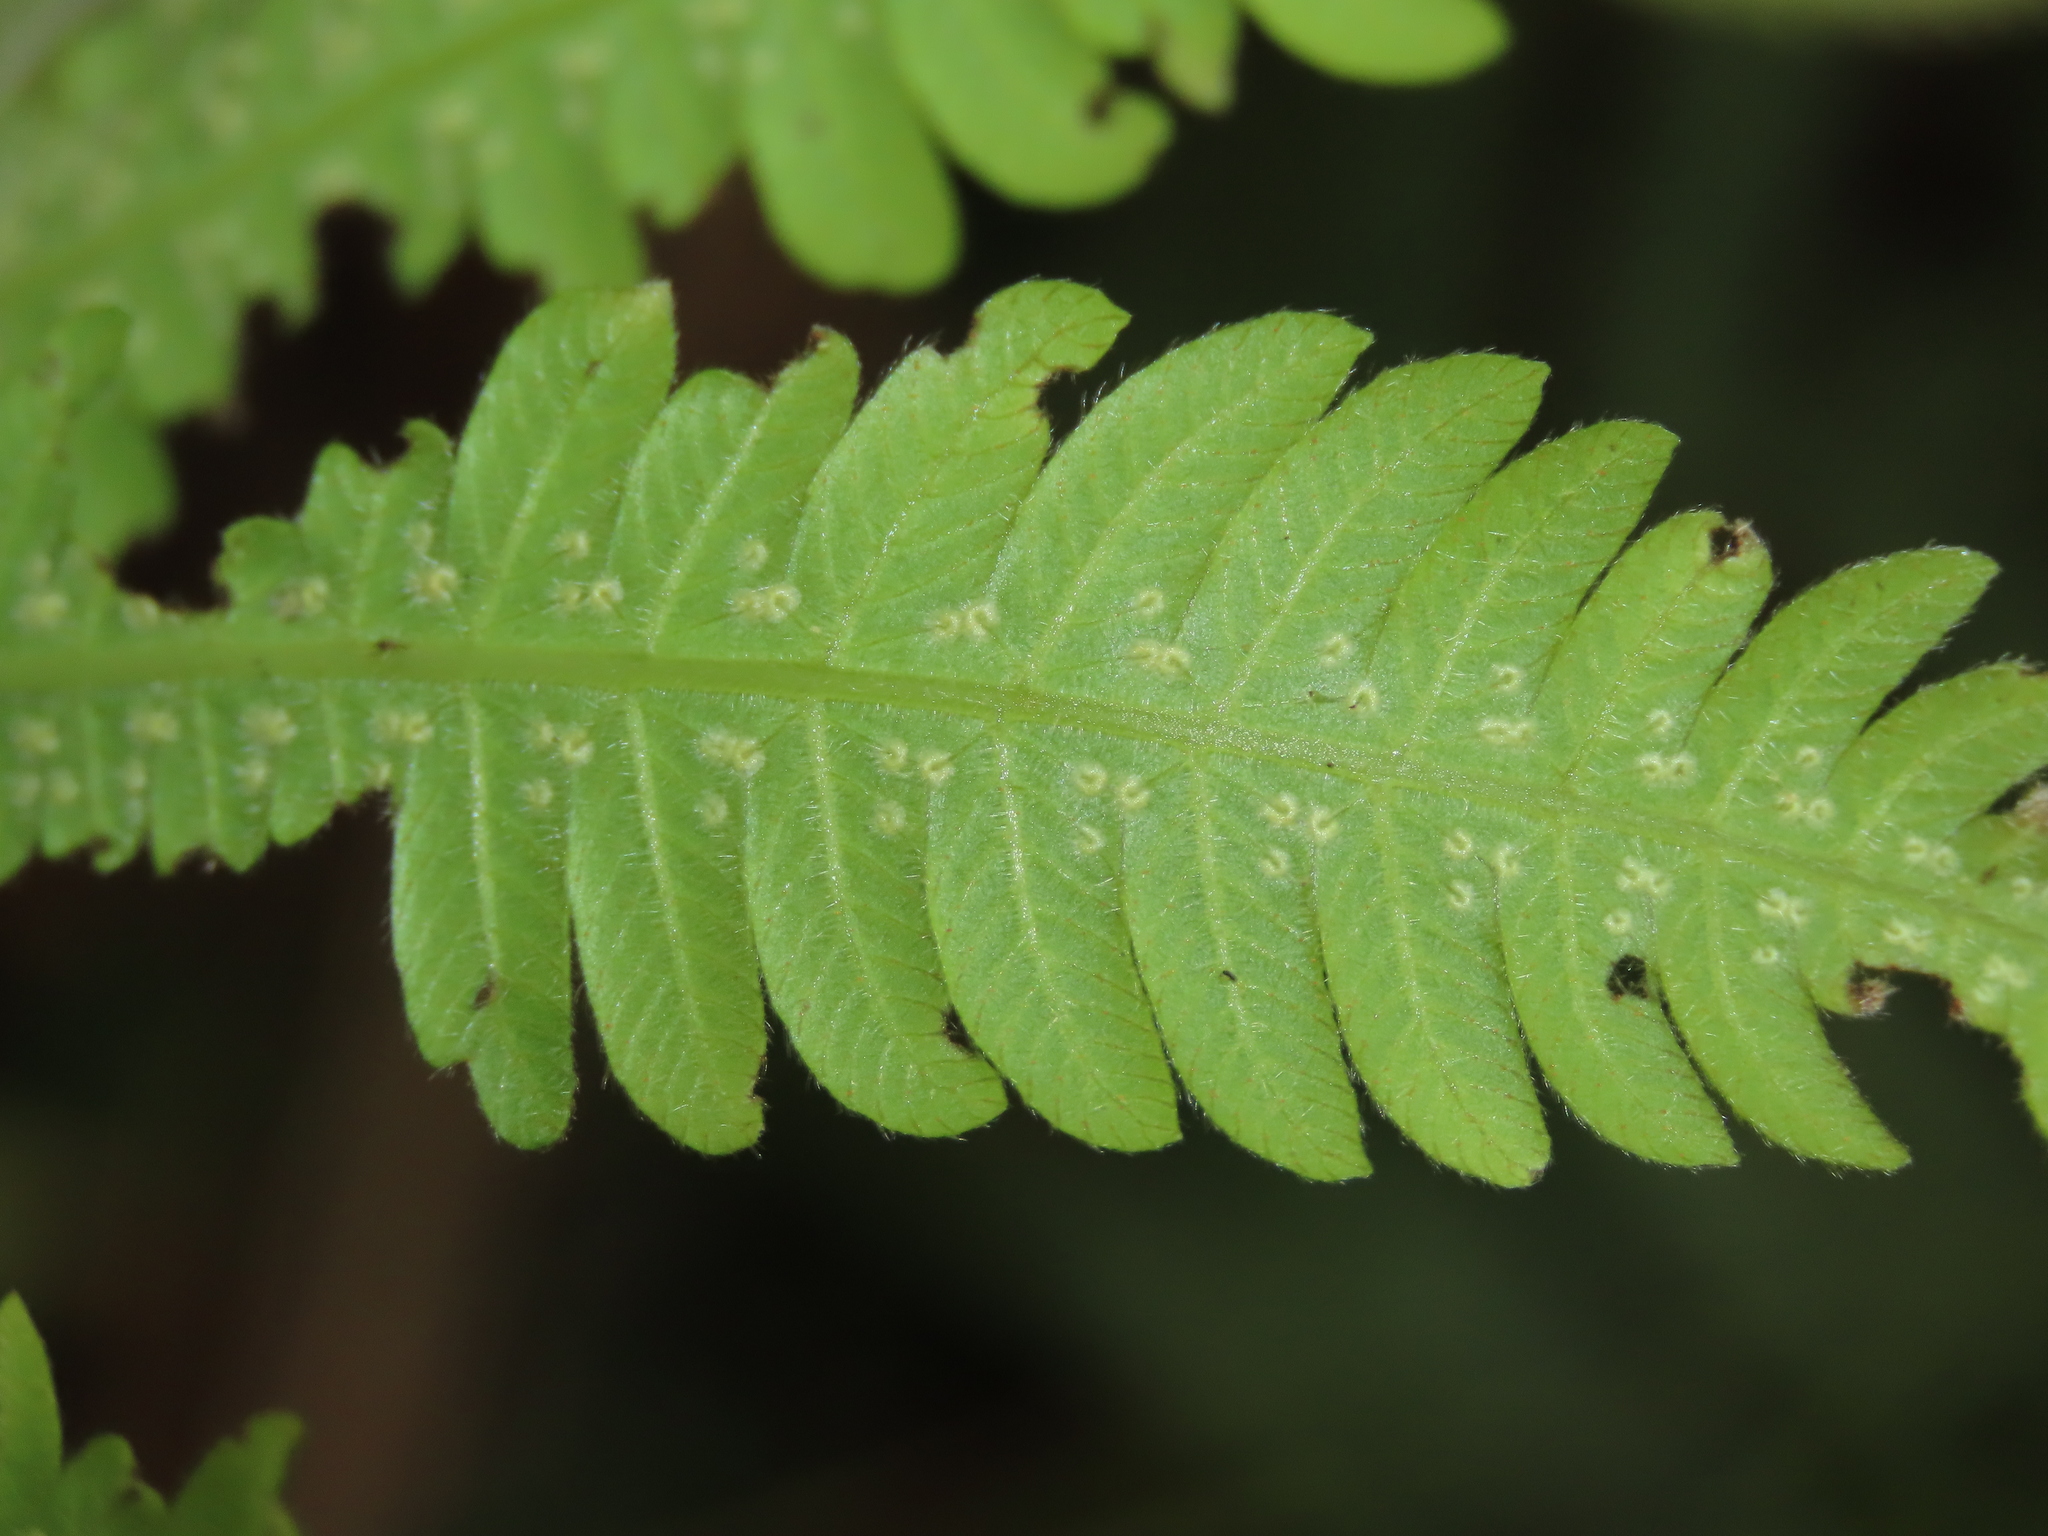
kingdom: Plantae
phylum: Tracheophyta
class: Polypodiopsida
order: Polypodiales
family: Thelypteridaceae
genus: Christella
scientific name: Christella parasitica
